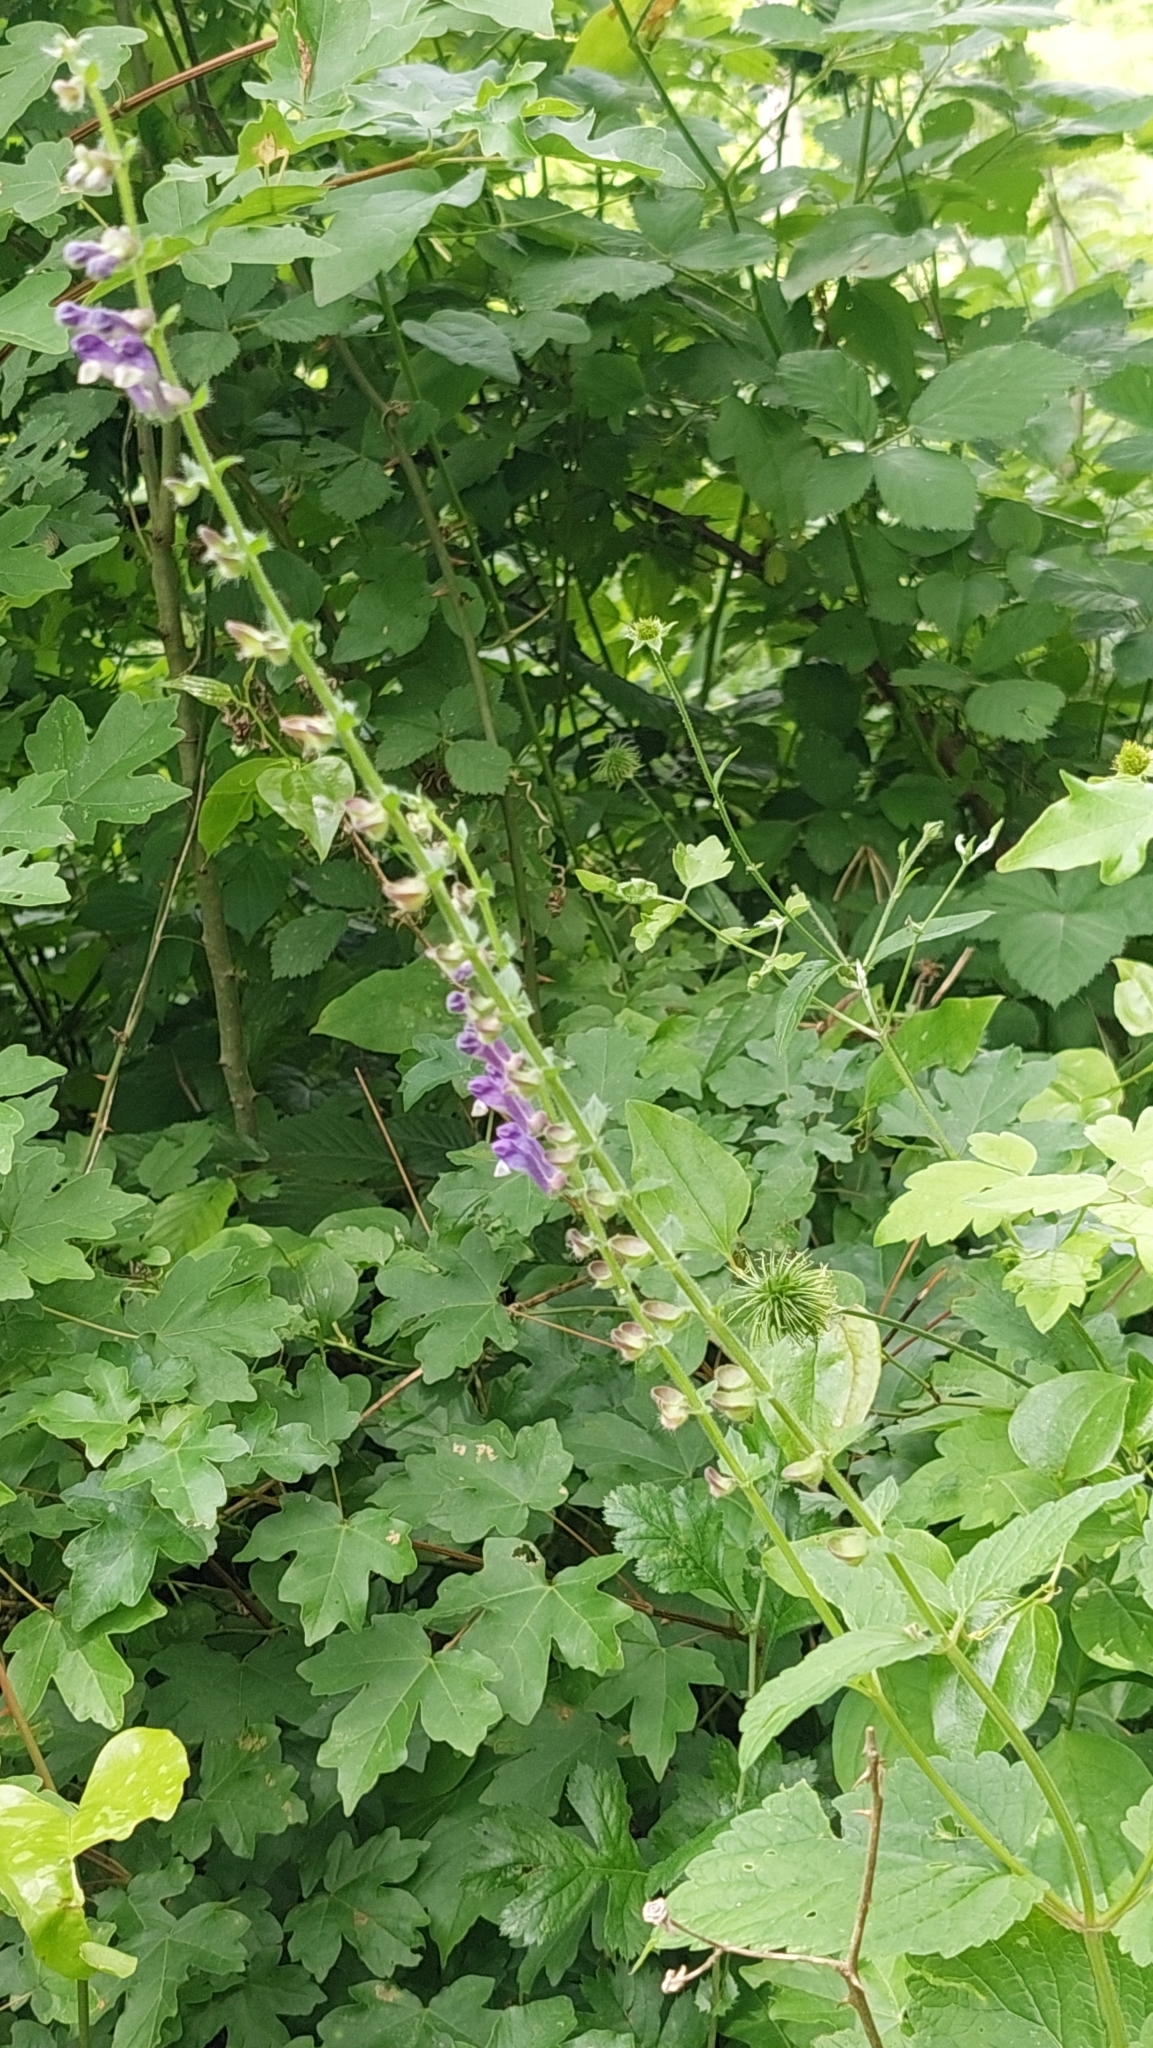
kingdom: Plantae
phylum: Tracheophyta
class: Magnoliopsida
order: Lamiales
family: Lamiaceae
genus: Scutellaria
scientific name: Scutellaria altissima
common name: Somerset skullcap
